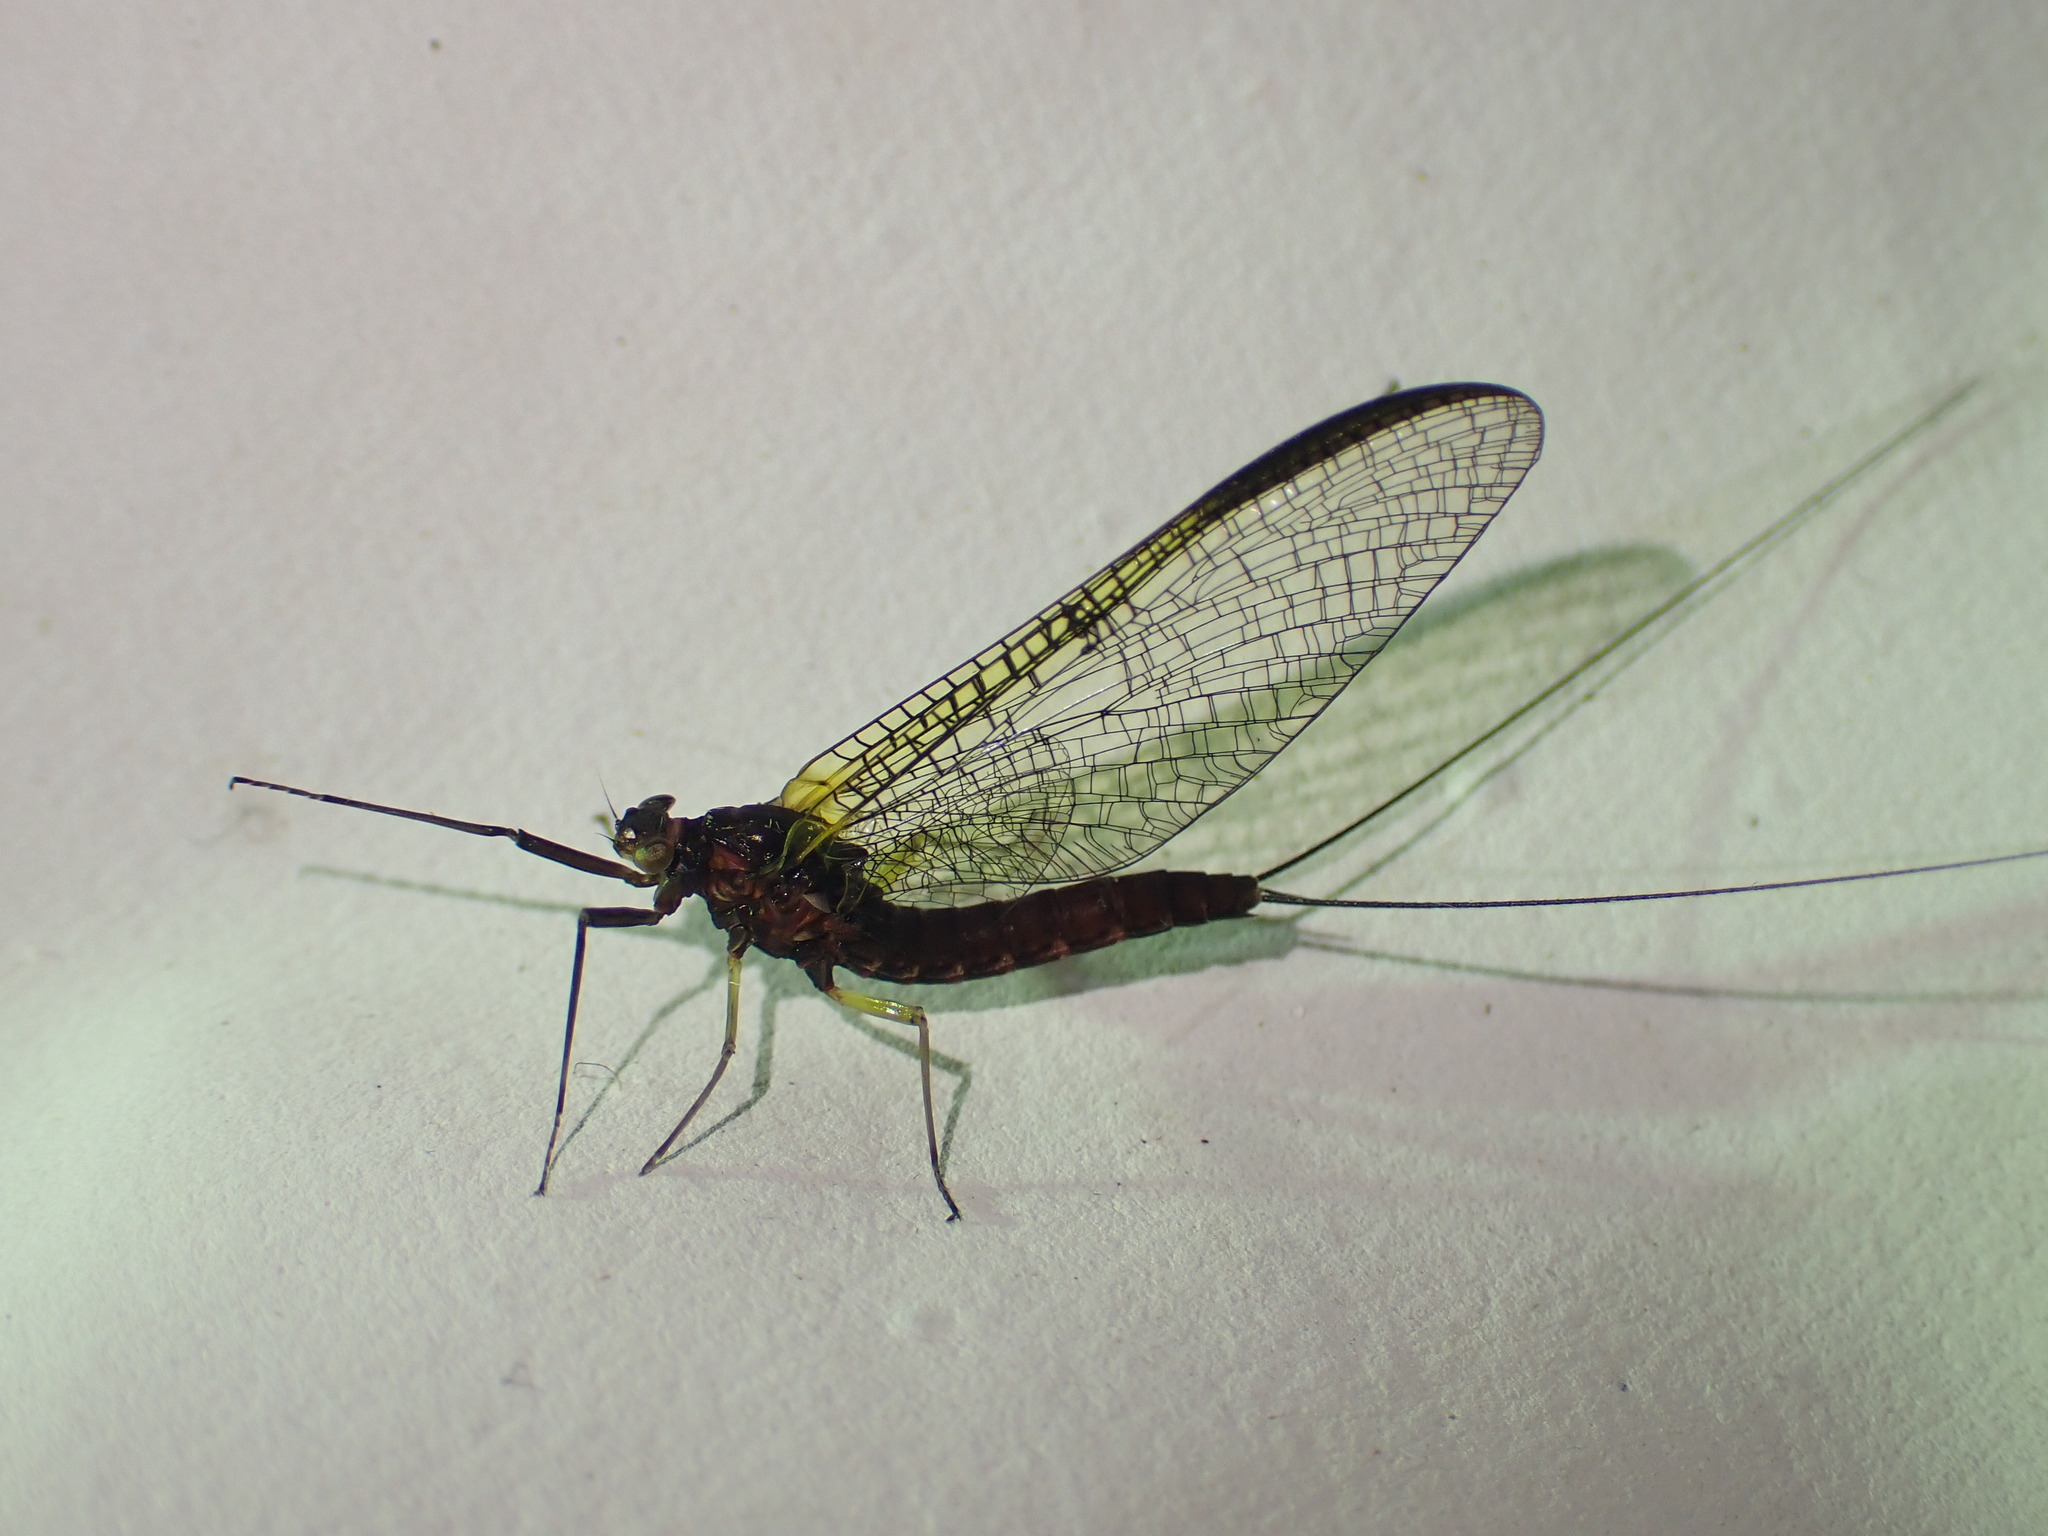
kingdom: Animalia
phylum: Arthropoda
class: Insecta
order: Ephemeroptera
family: Coloburiscidae
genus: Coloburiscus
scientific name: Coloburiscus humeralis
